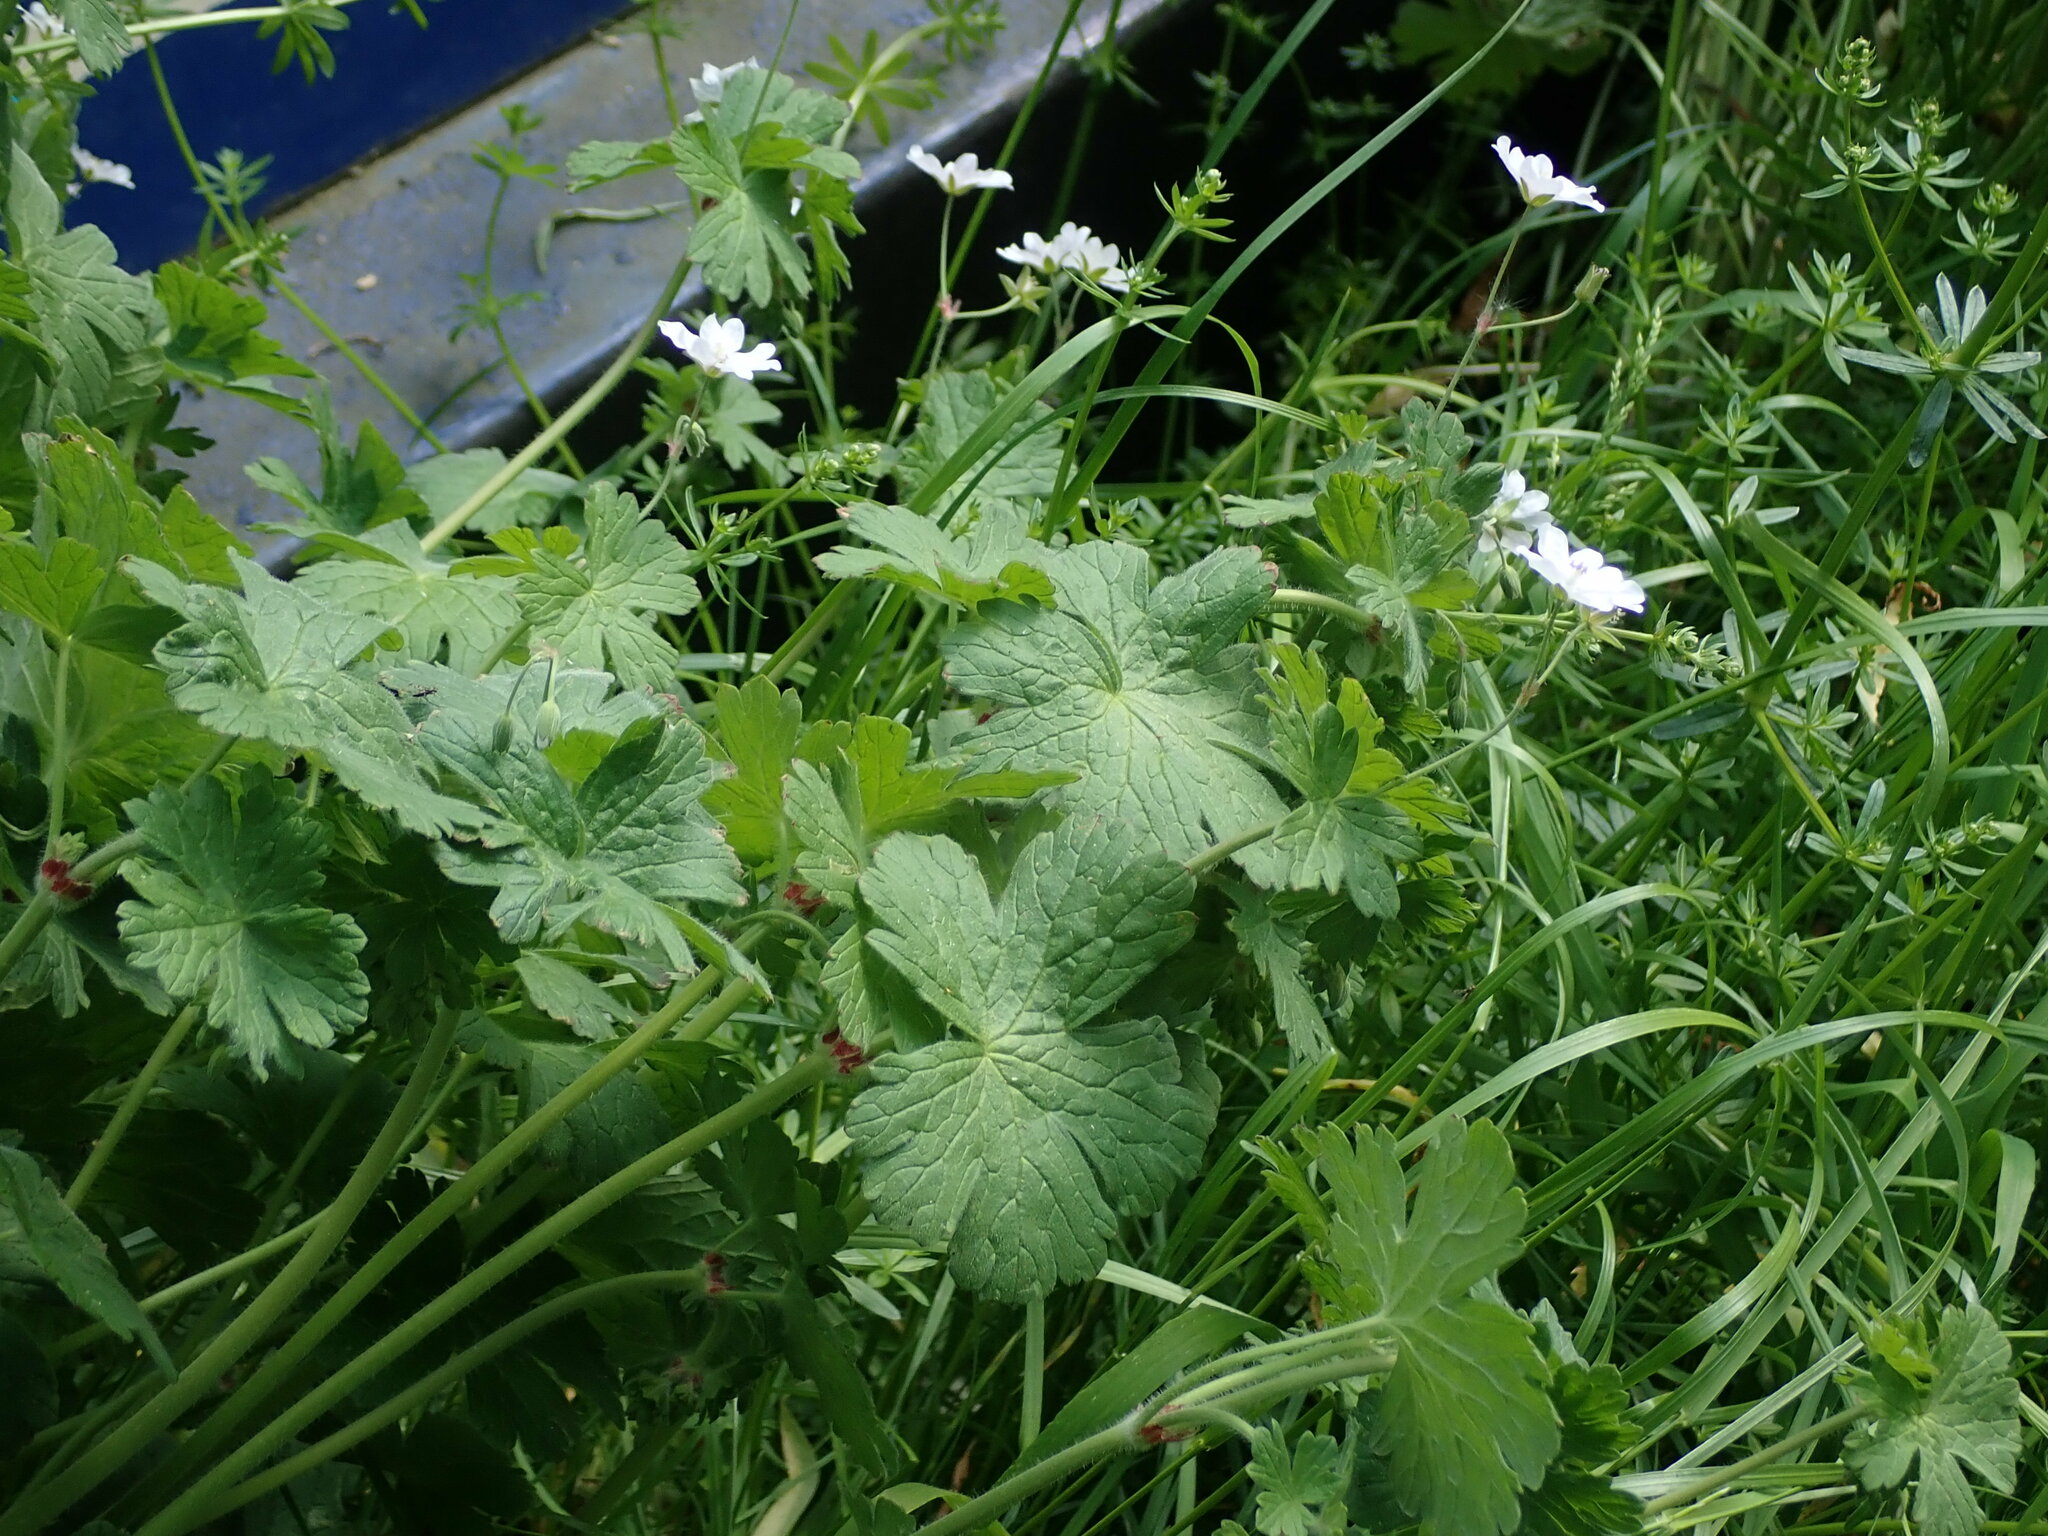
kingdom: Plantae
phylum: Tracheophyta
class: Magnoliopsida
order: Geraniales
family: Geraniaceae
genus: Geranium
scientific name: Geranium pyrenaicum
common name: Hedgerow crane's-bill
